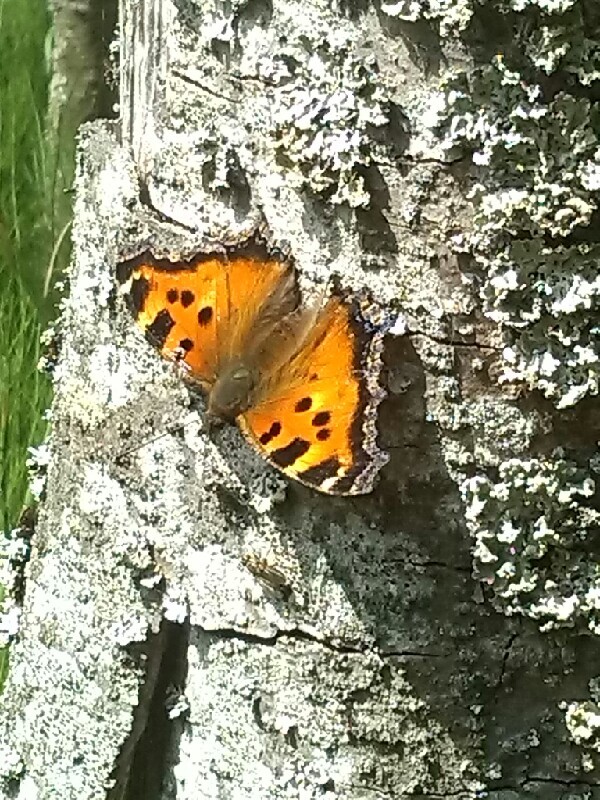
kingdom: Animalia
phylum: Arthropoda
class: Insecta
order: Lepidoptera
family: Nymphalidae
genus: Nymphalis
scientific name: Nymphalis xanthomelas
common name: Scarce tortoiseshell
